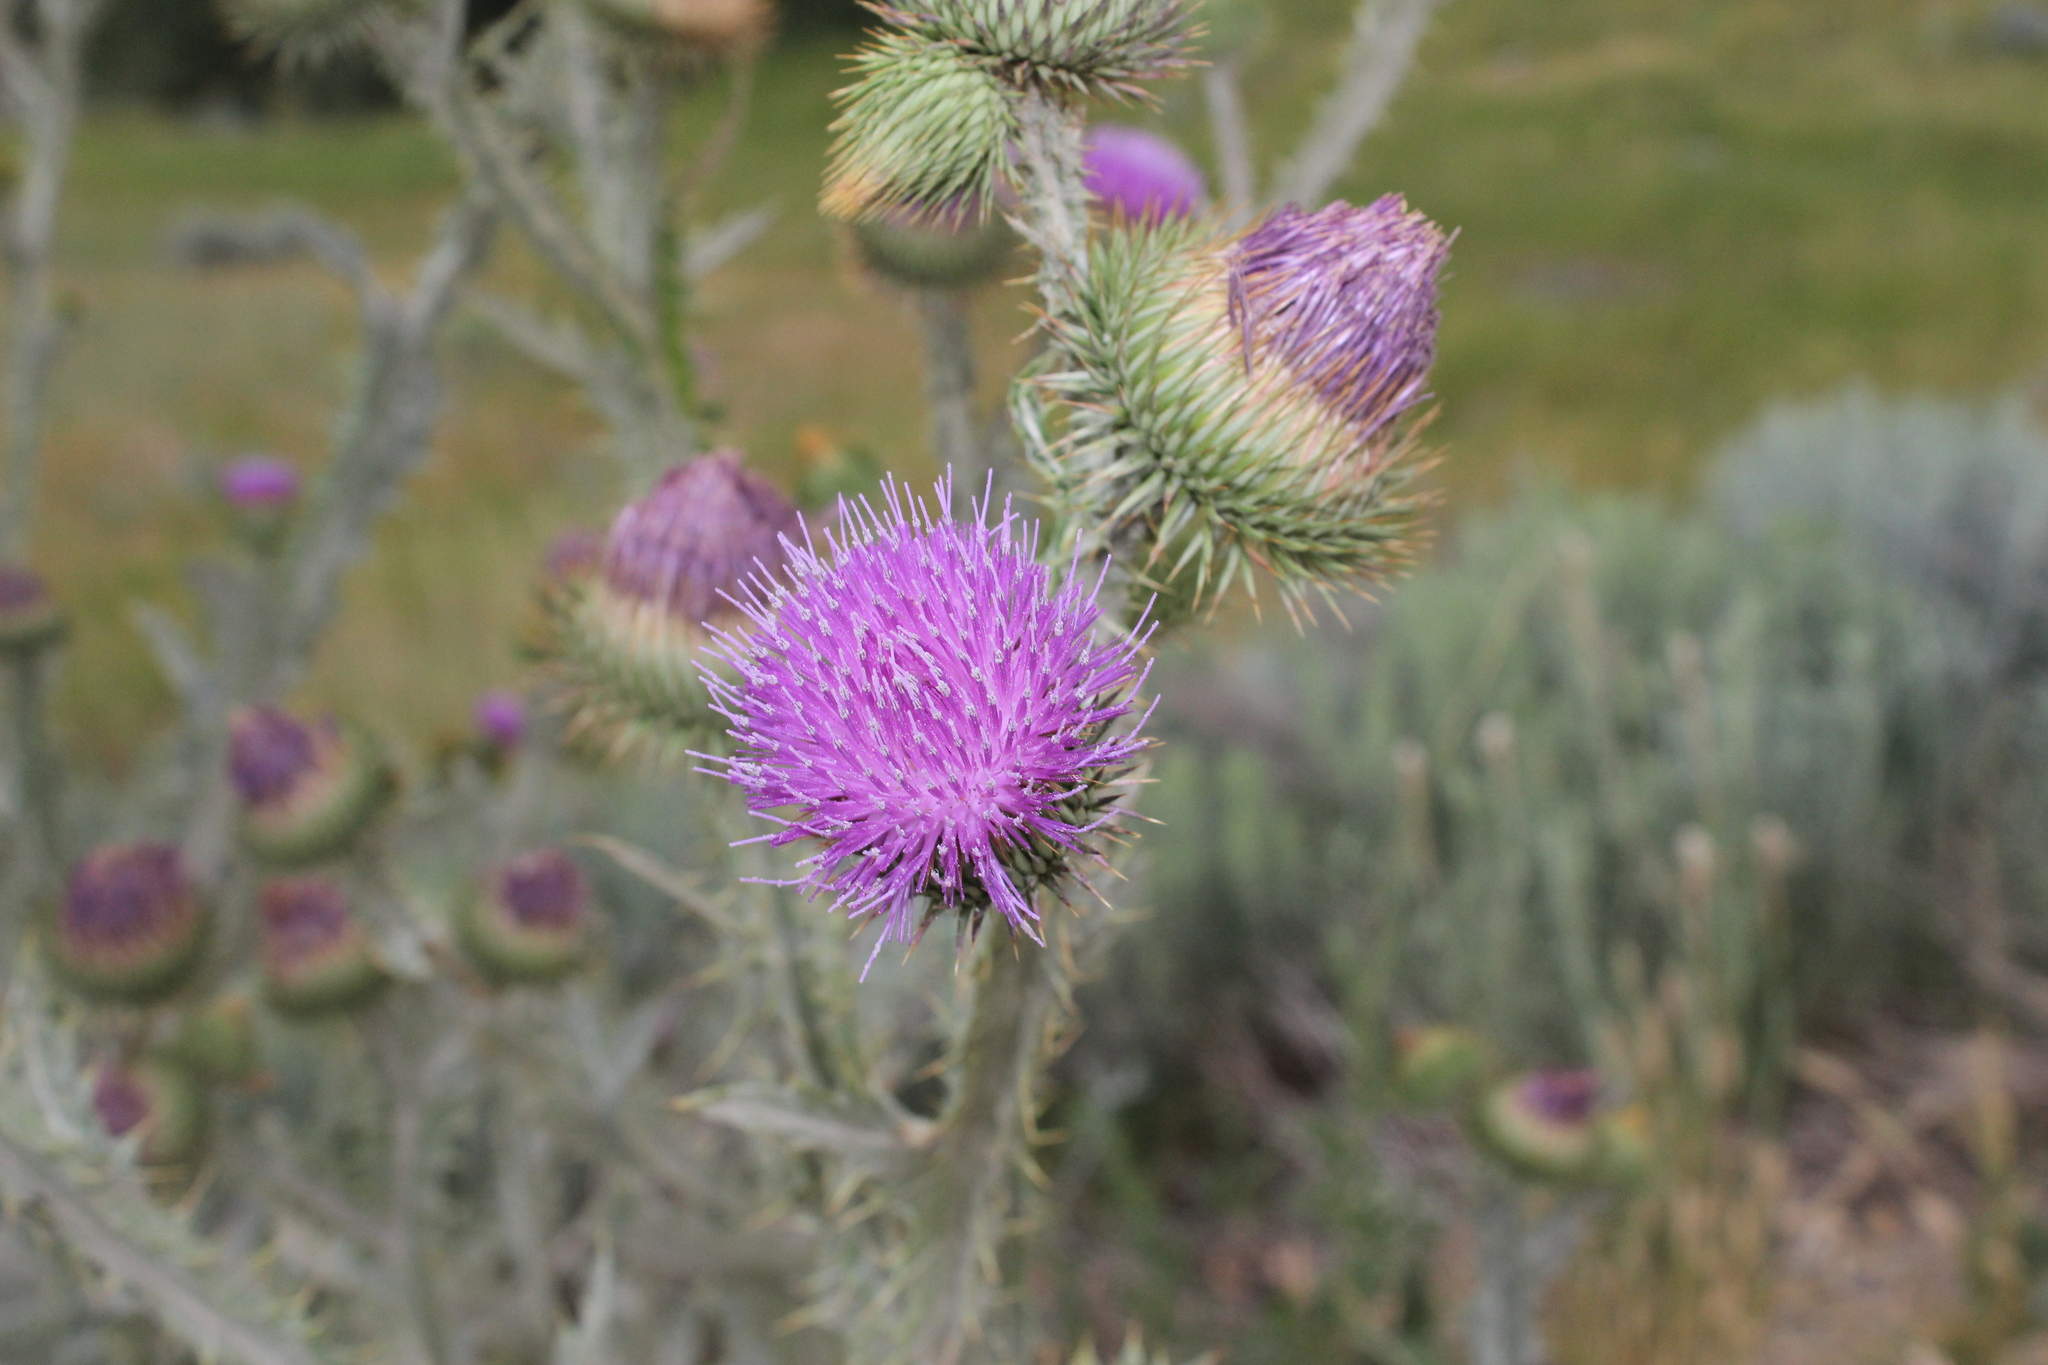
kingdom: Plantae
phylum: Tracheophyta
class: Magnoliopsida
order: Asterales
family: Asteraceae
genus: Onopordum
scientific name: Onopordum acanthium
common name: Scotch thistle
